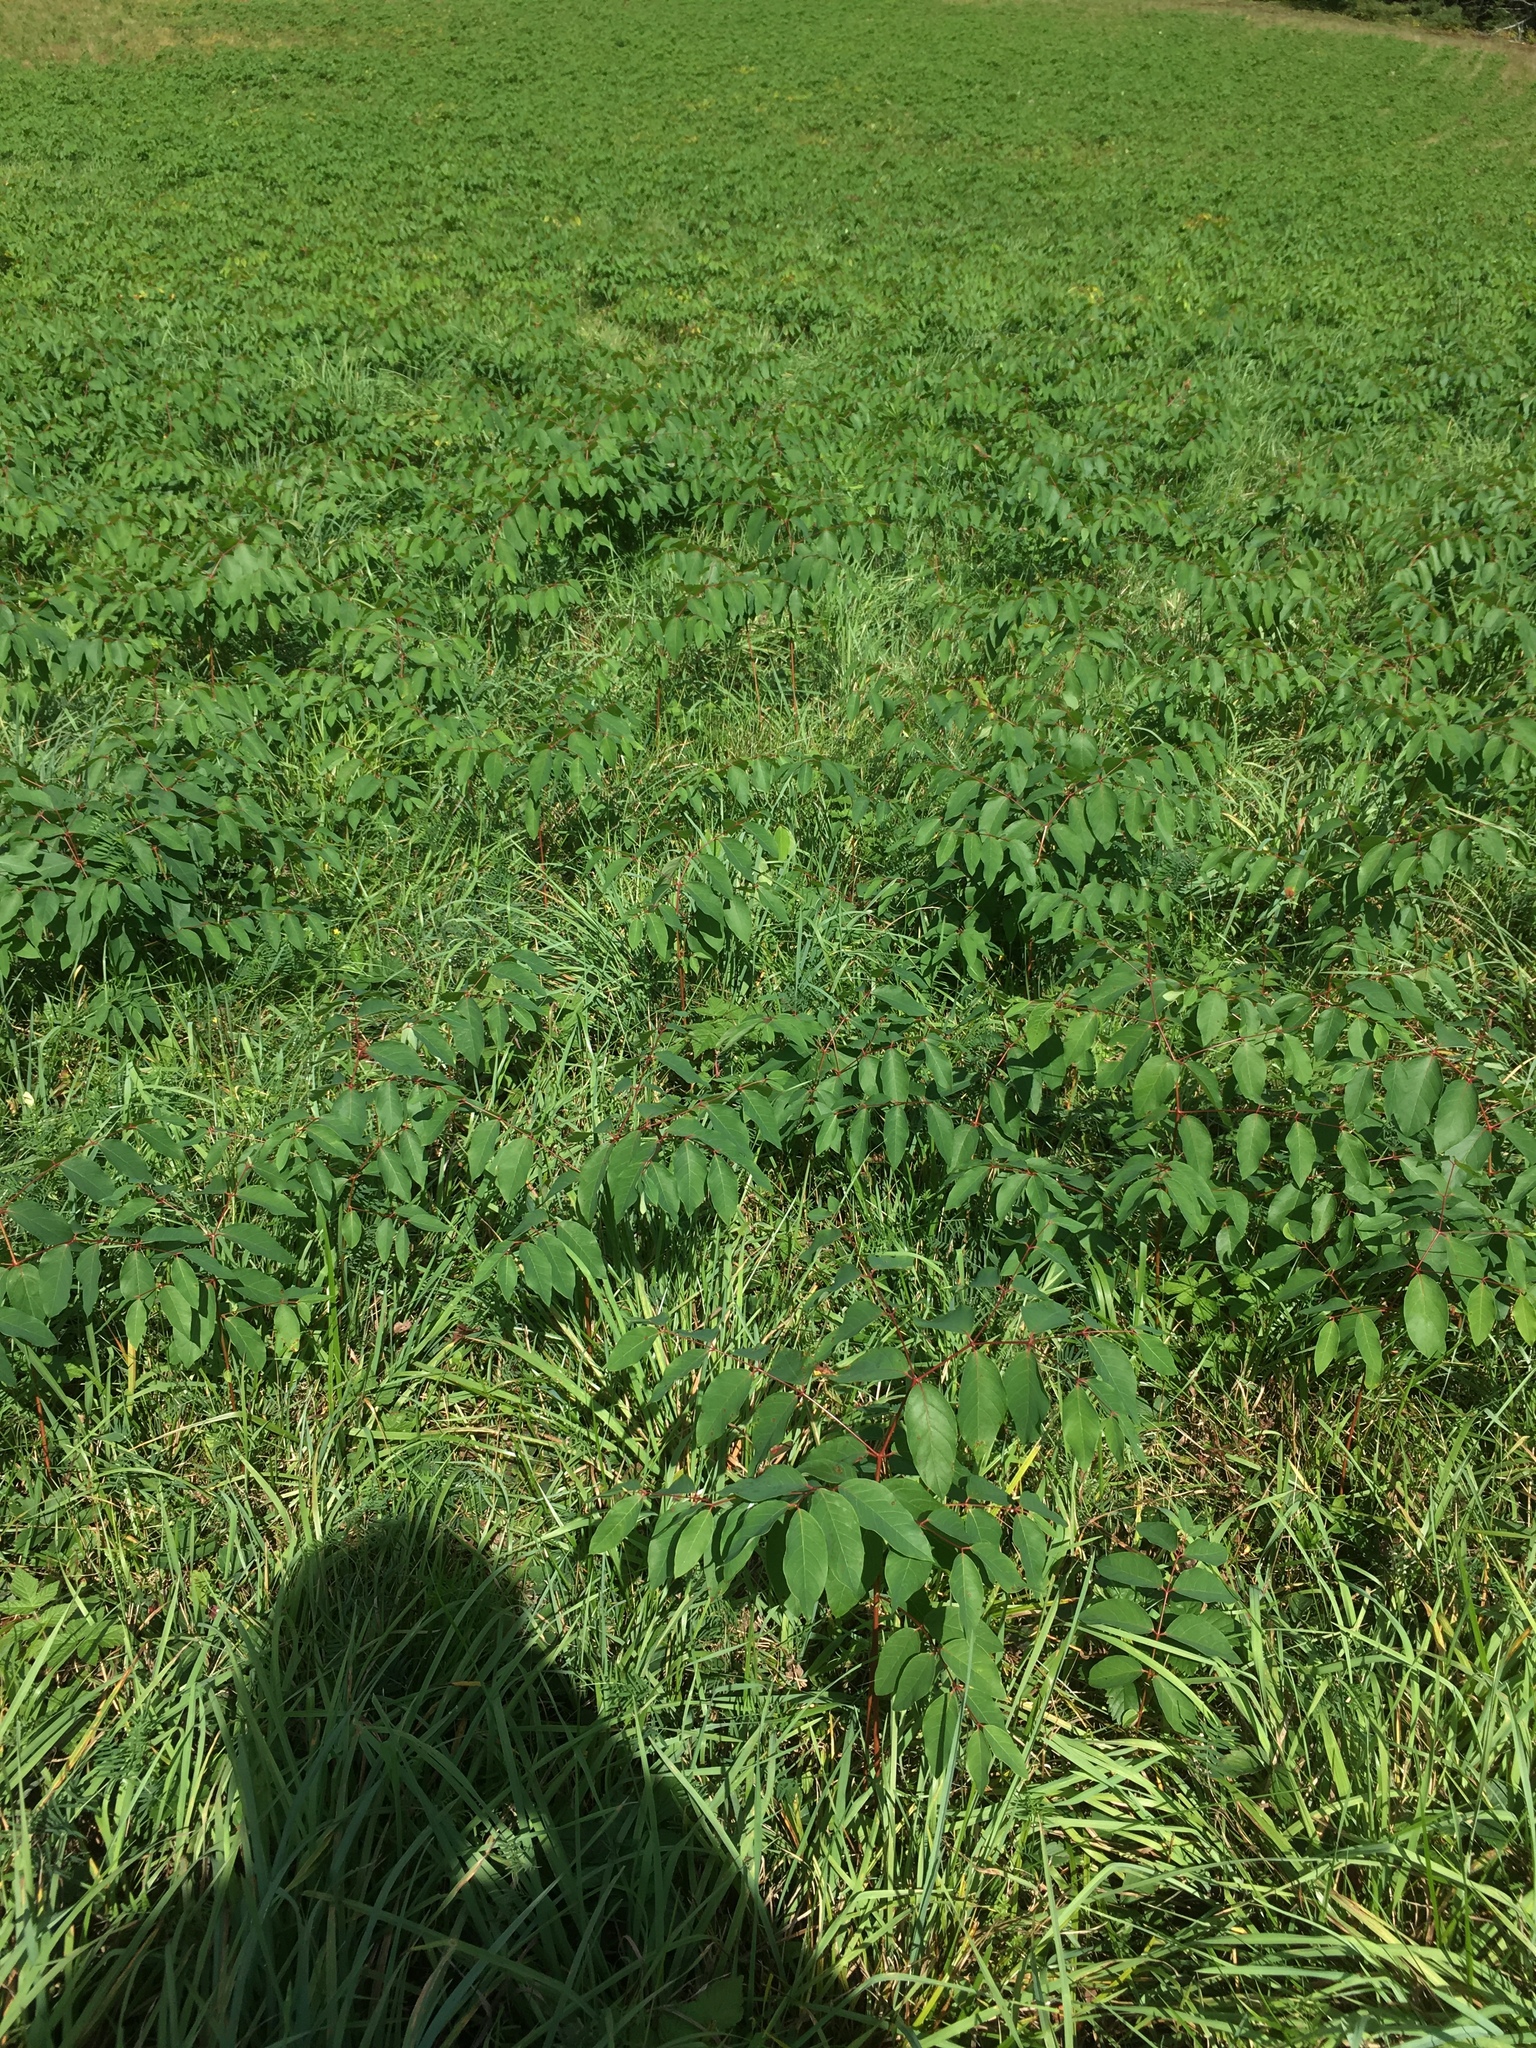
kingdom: Plantae
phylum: Tracheophyta
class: Magnoliopsida
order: Gentianales
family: Apocynaceae
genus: Apocynum
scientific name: Apocynum androsaemifolium
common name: Spreading dogbane
